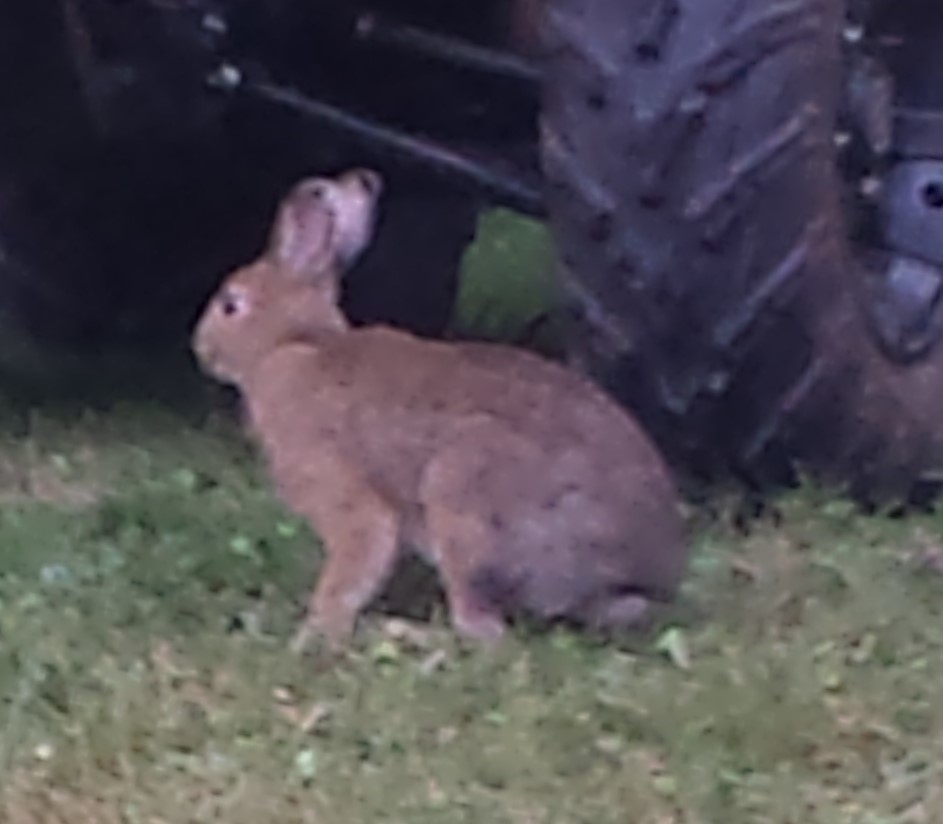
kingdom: Animalia
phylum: Chordata
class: Mammalia
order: Lagomorpha
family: Leporidae
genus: Lepus
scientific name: Lepus americanus
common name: Snowshoe hare
